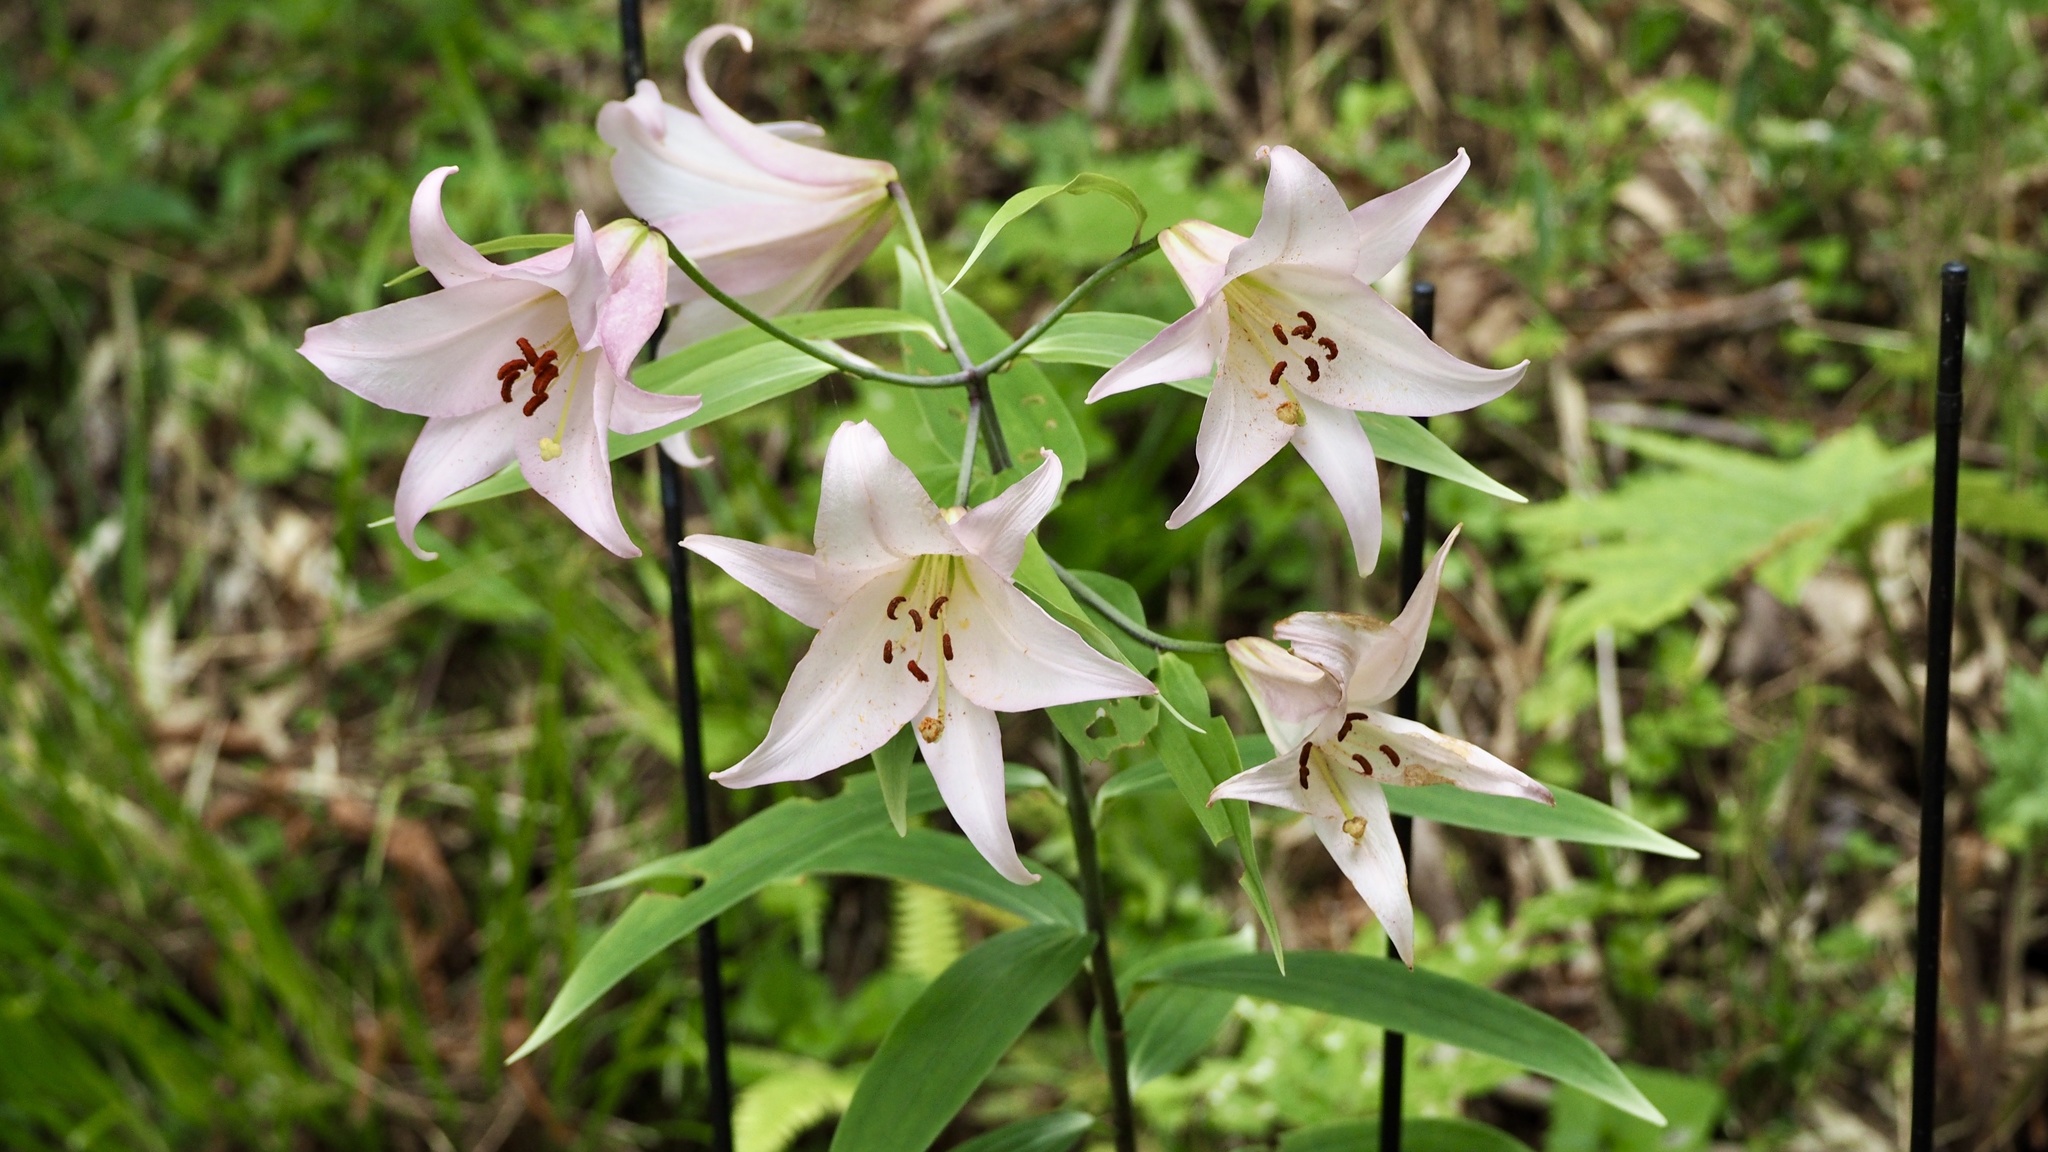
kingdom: Plantae
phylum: Tracheophyta
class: Liliopsida
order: Liliales
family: Liliaceae
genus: Lilium
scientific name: Lilium japonicum
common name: Japanese lily
